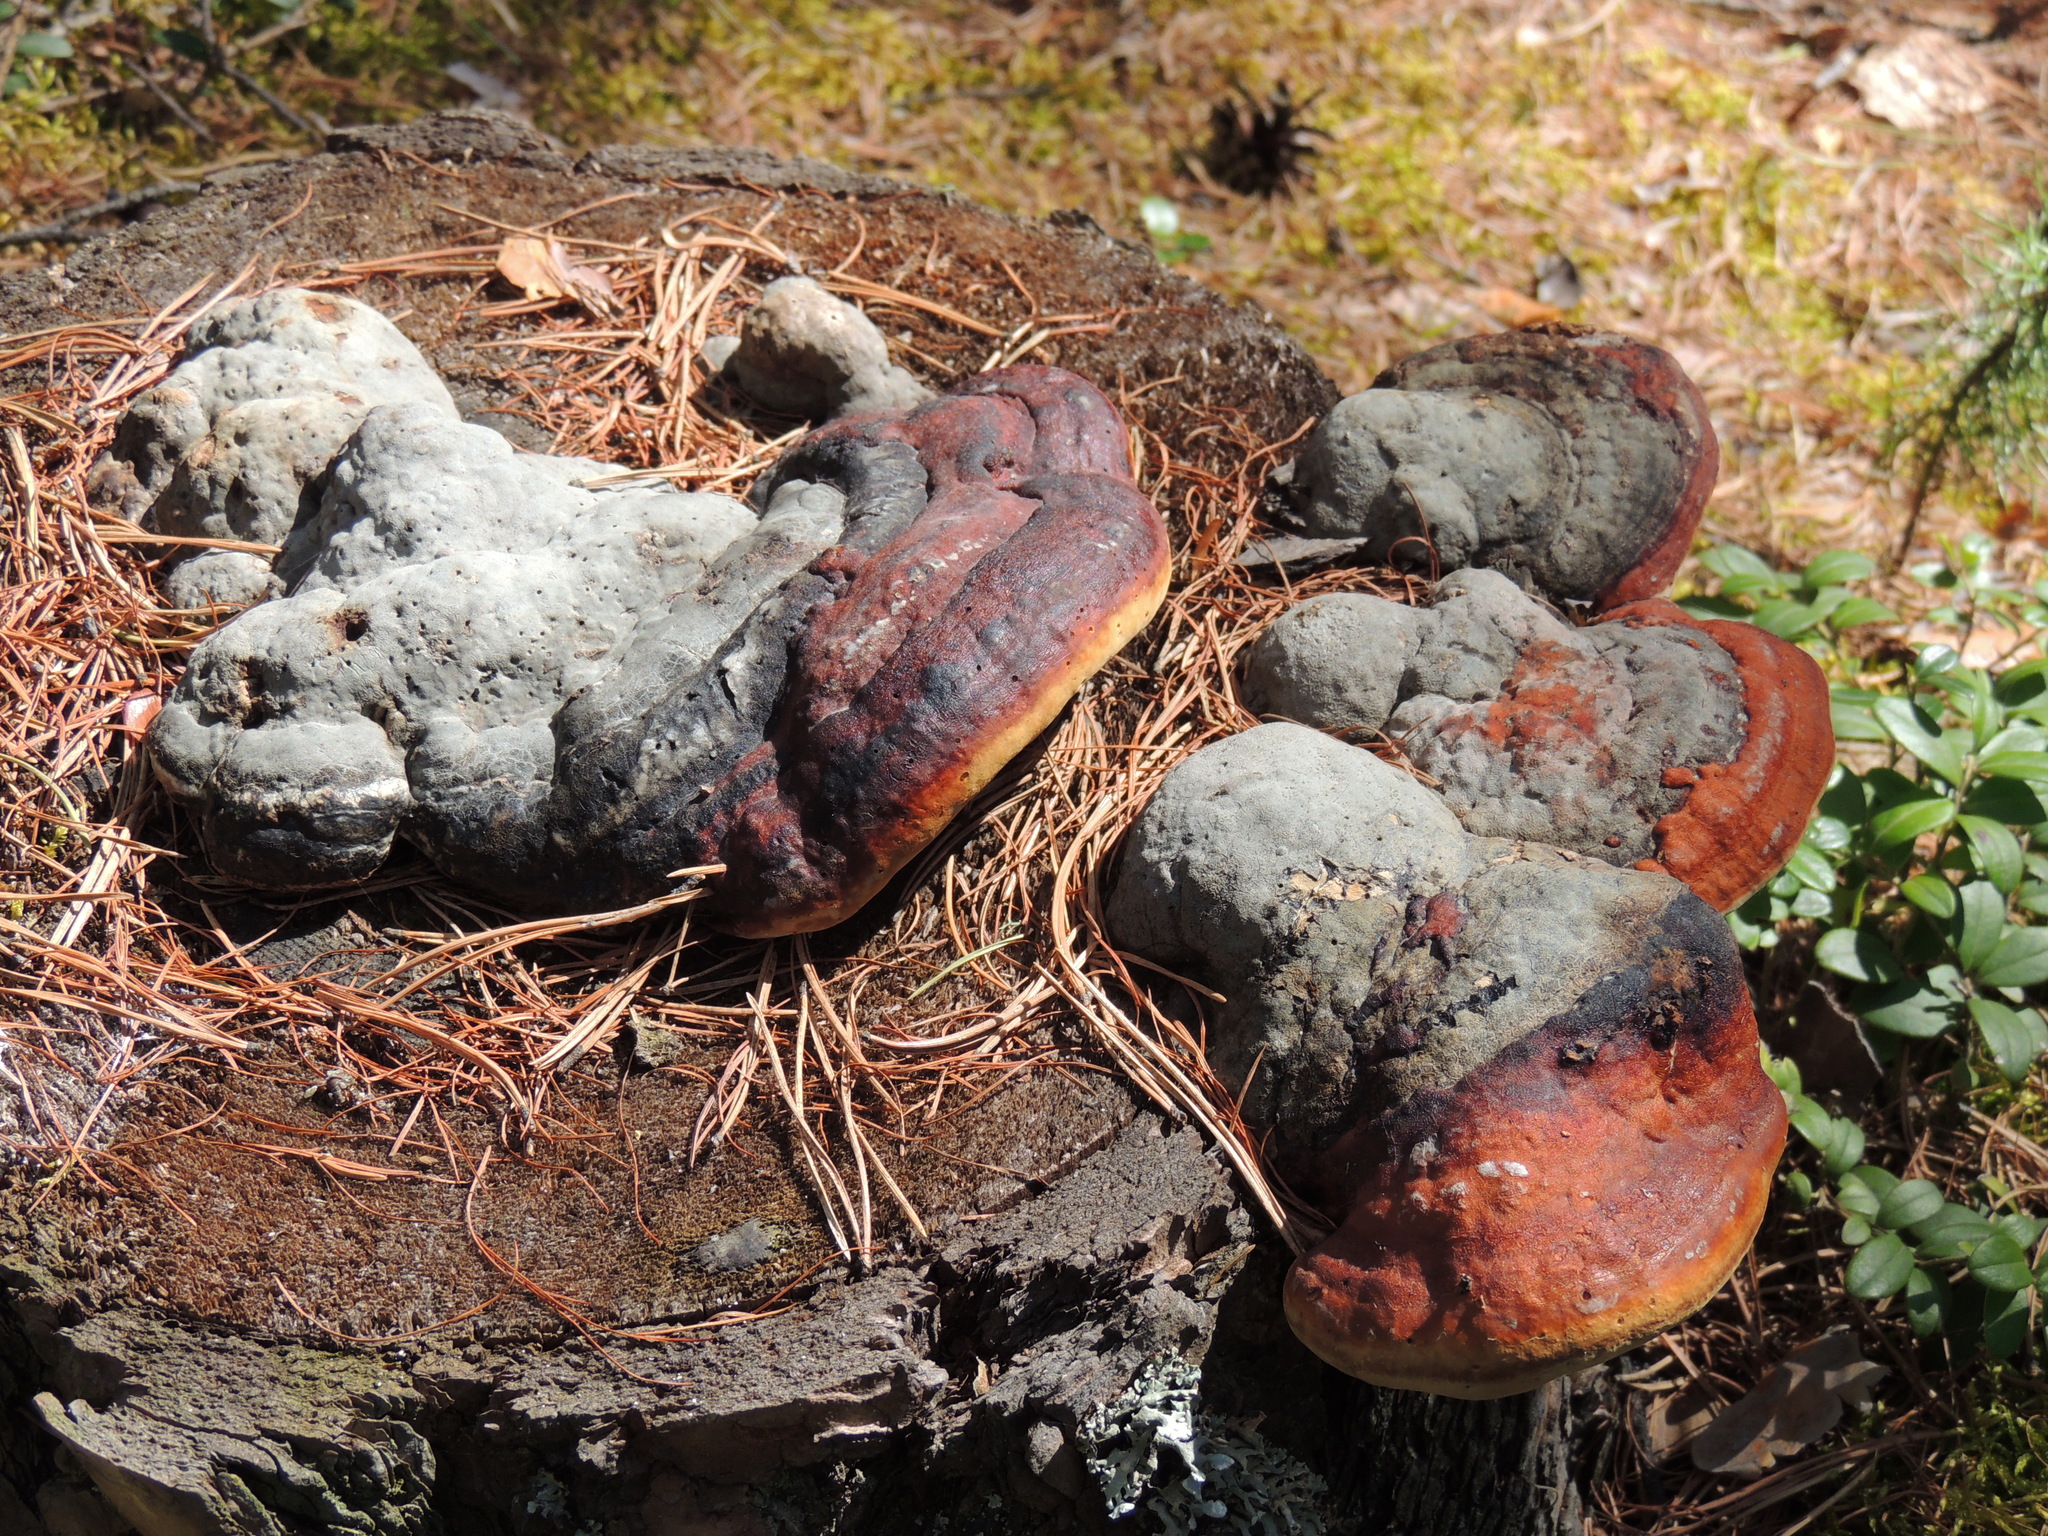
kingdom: Fungi
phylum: Basidiomycota
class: Agaricomycetes
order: Polyporales
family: Fomitopsidaceae
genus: Fomitopsis
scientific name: Fomitopsis pinicola
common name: Red-belted bracket
